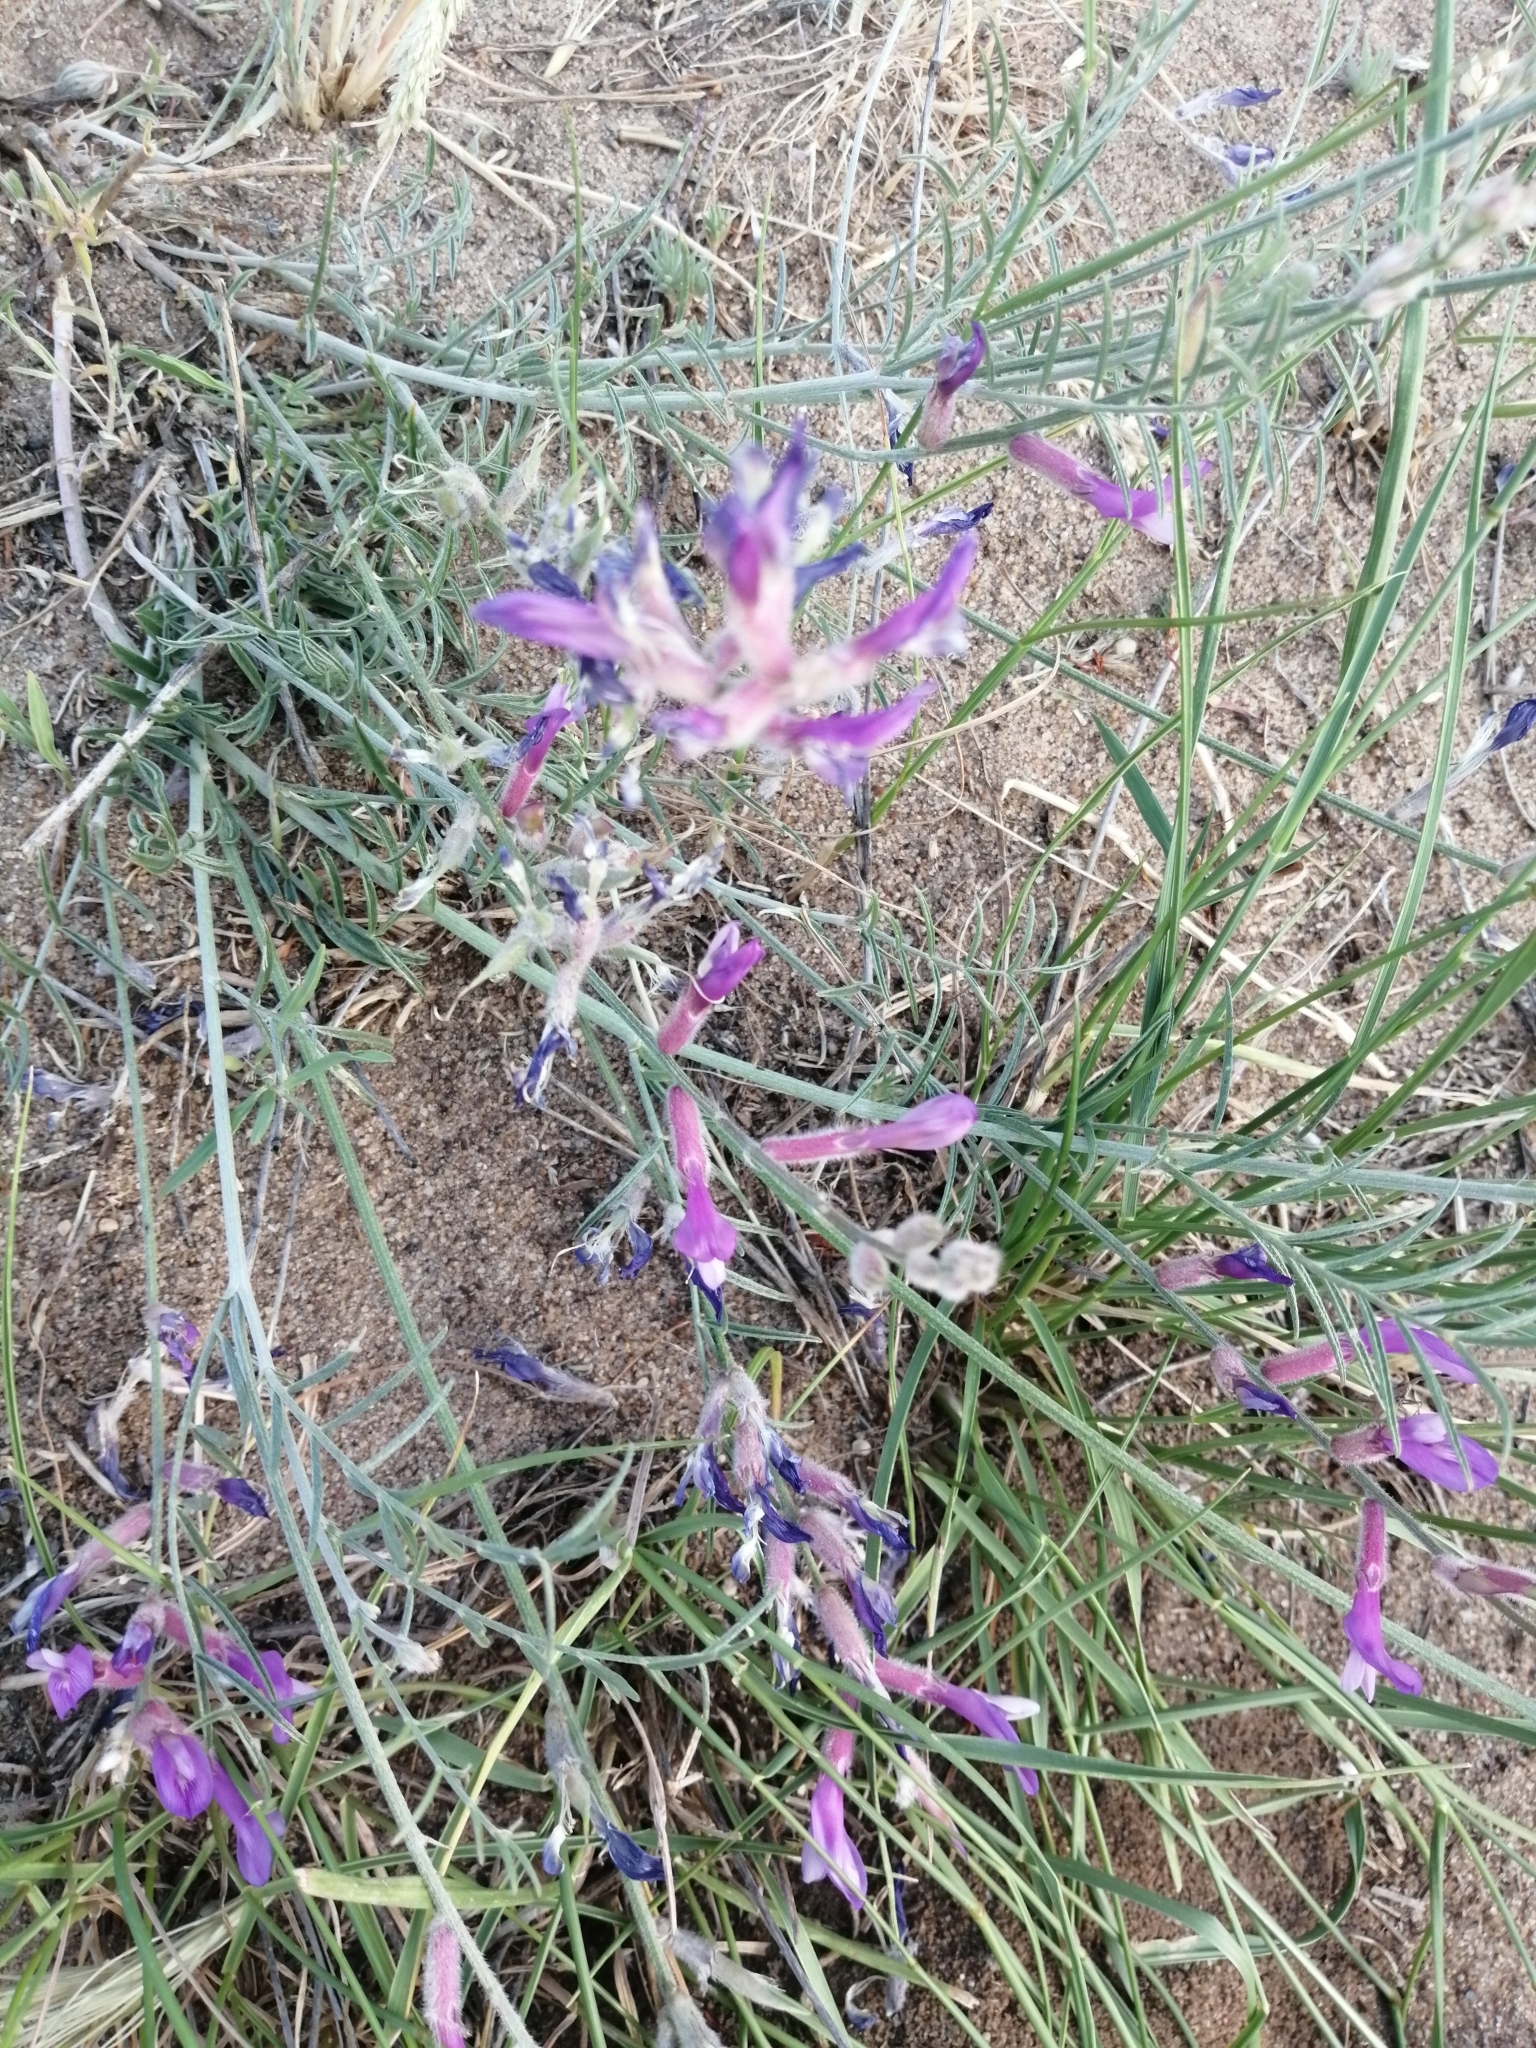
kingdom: Plantae
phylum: Tracheophyta
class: Magnoliopsida
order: Fabales
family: Fabaceae
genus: Astragalus
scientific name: Astragalus varius
